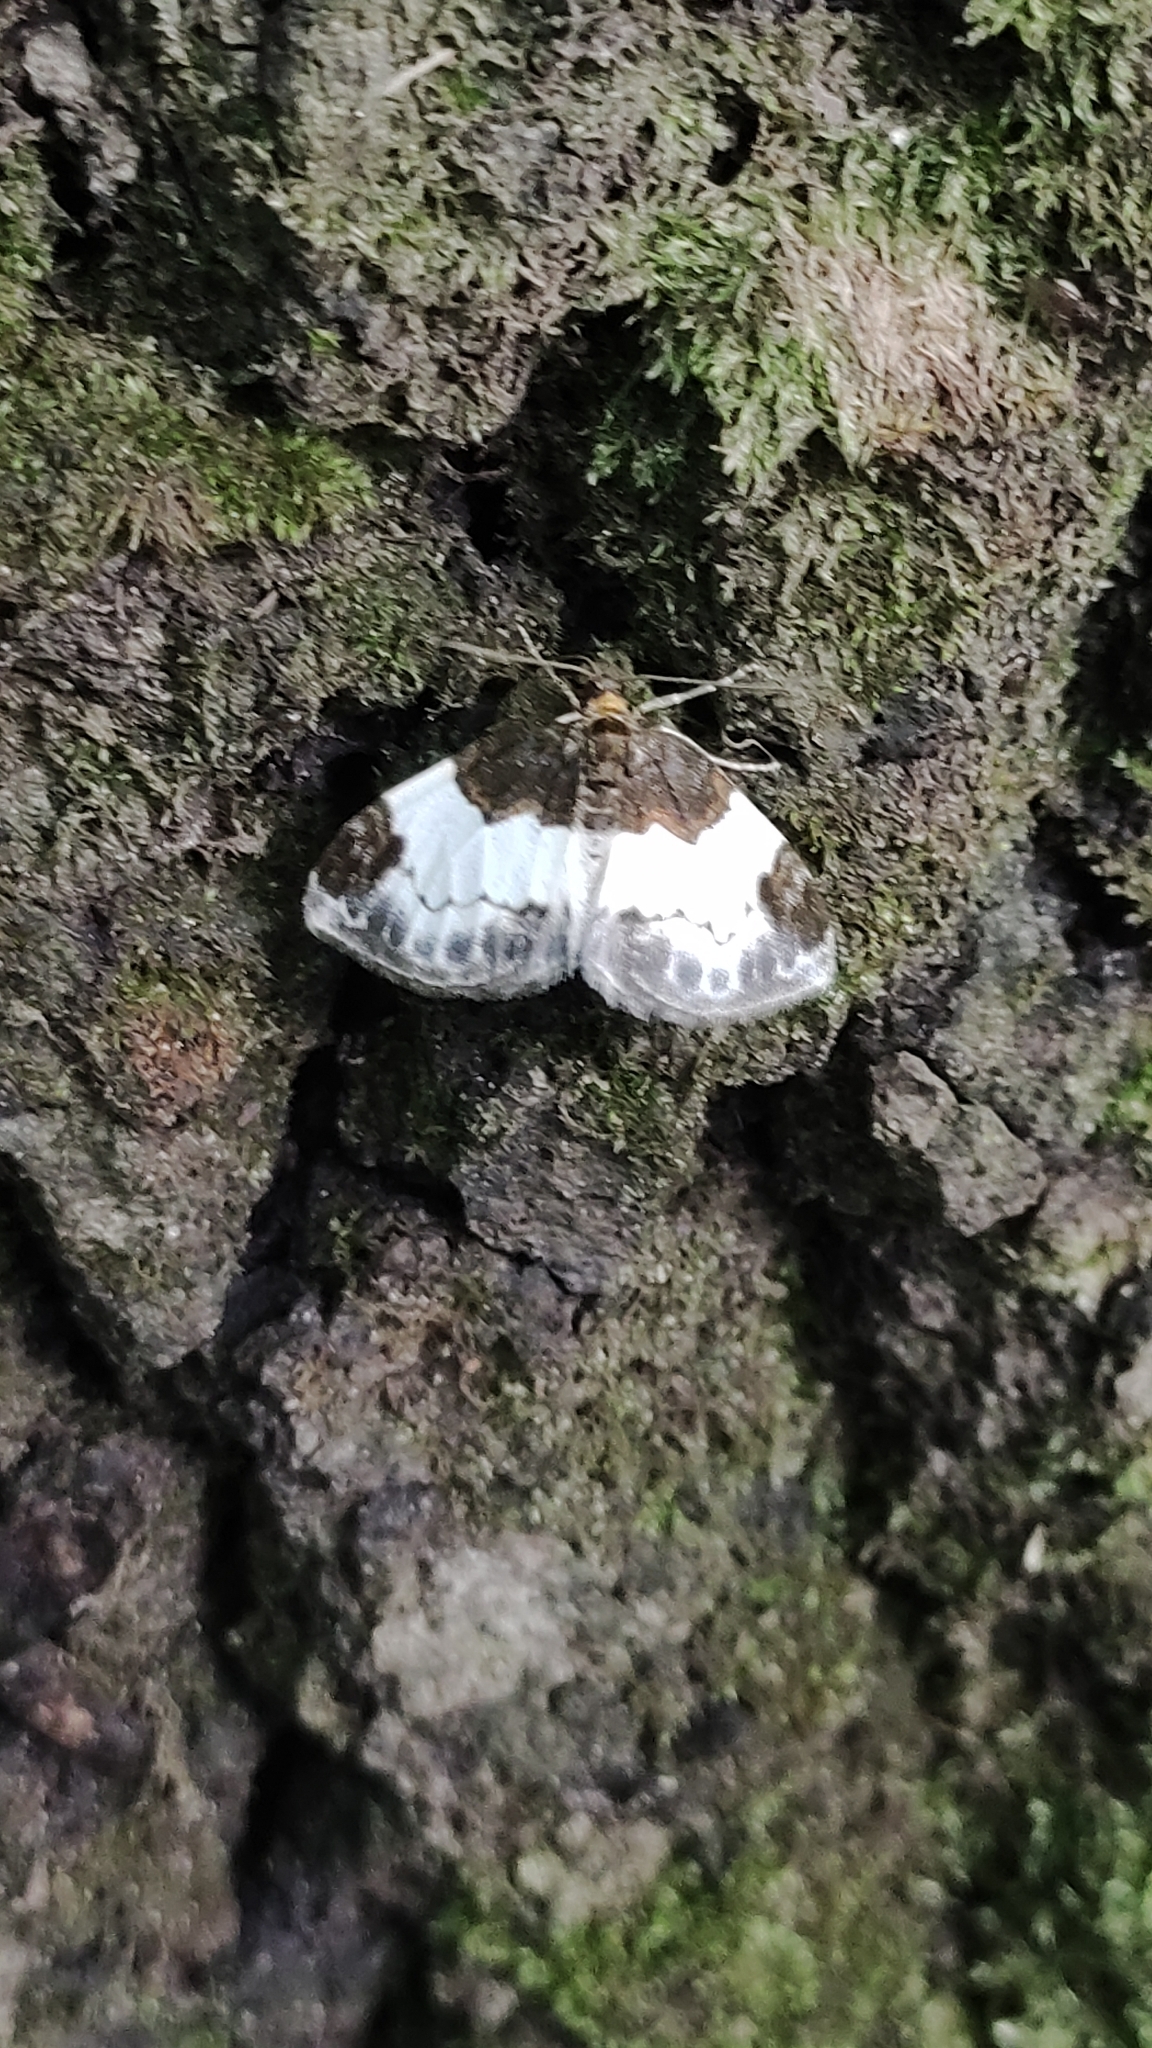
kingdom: Animalia
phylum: Arthropoda
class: Insecta
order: Lepidoptera
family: Geometridae
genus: Mesoleuca
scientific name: Mesoleuca albicillata
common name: Beautiful carpet
